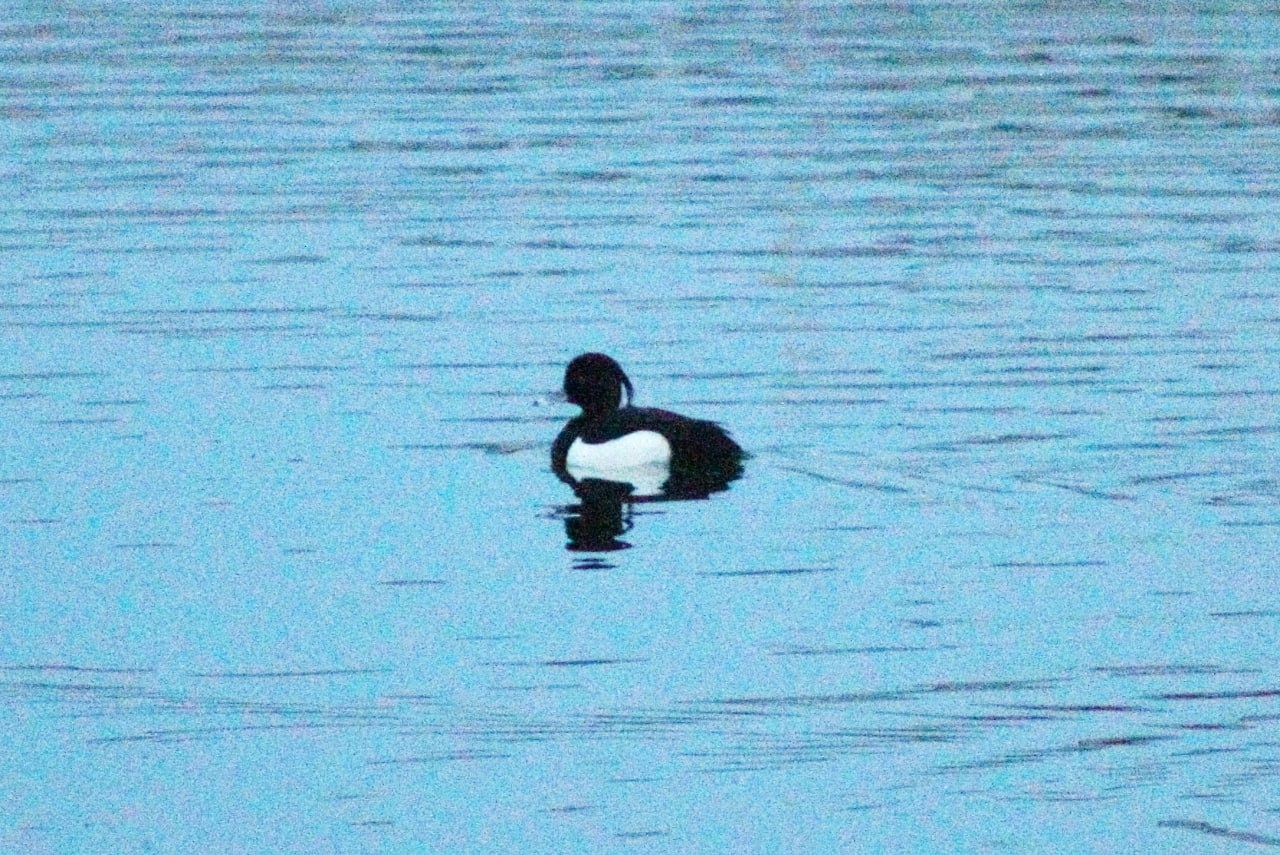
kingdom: Animalia
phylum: Chordata
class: Aves
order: Anseriformes
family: Anatidae
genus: Aythya
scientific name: Aythya fuligula
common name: Tufted duck
